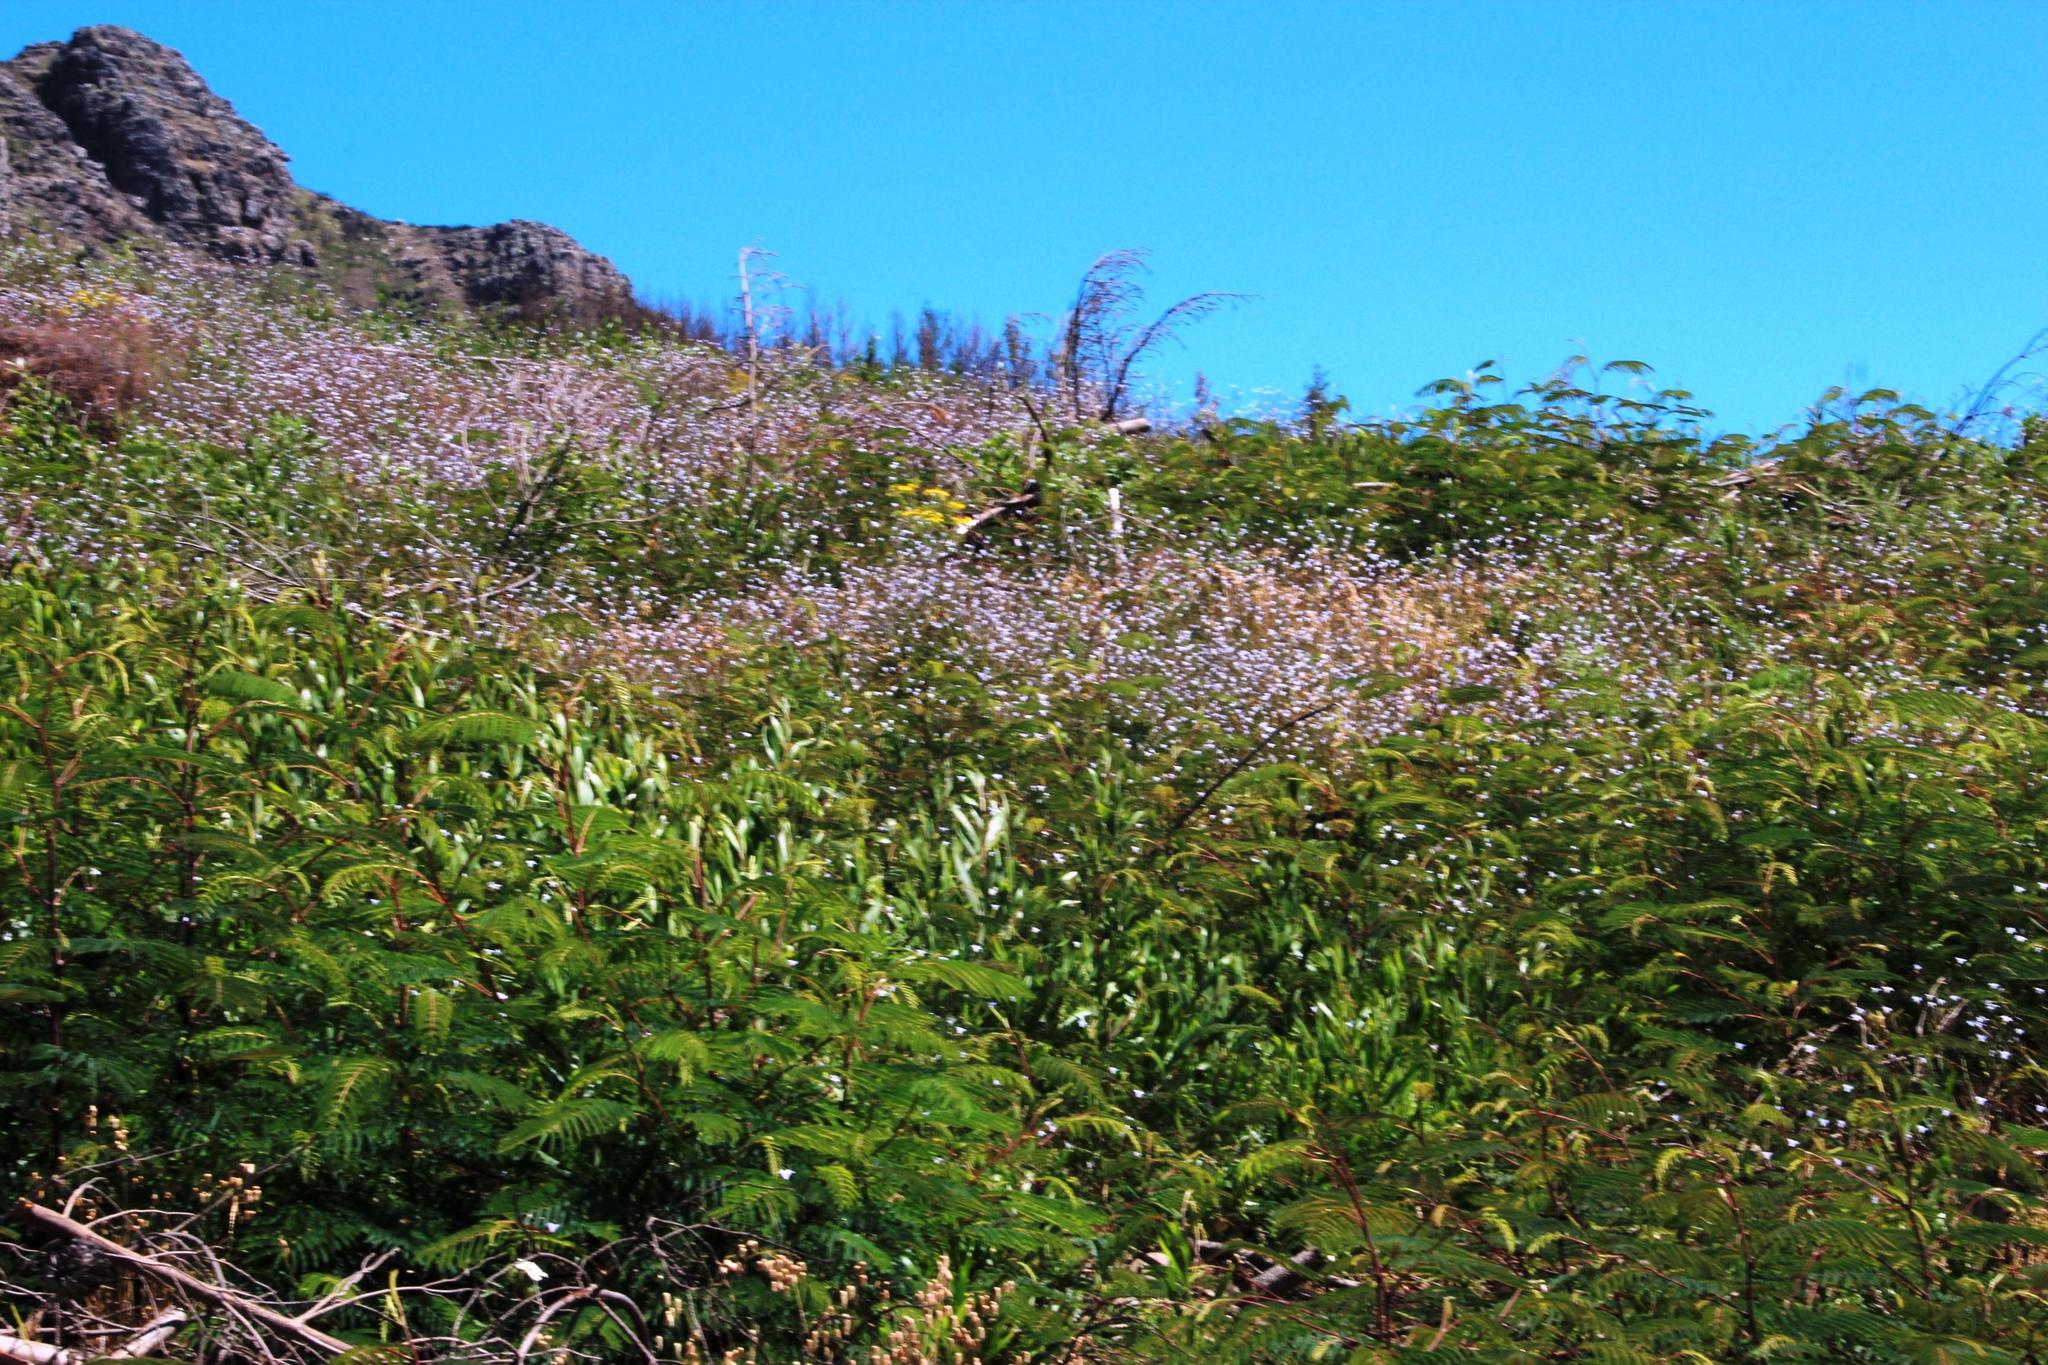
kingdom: Plantae
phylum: Tracheophyta
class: Magnoliopsida
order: Asterales
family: Campanulaceae
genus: Wahlenbergia
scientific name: Wahlenbergia obovata
